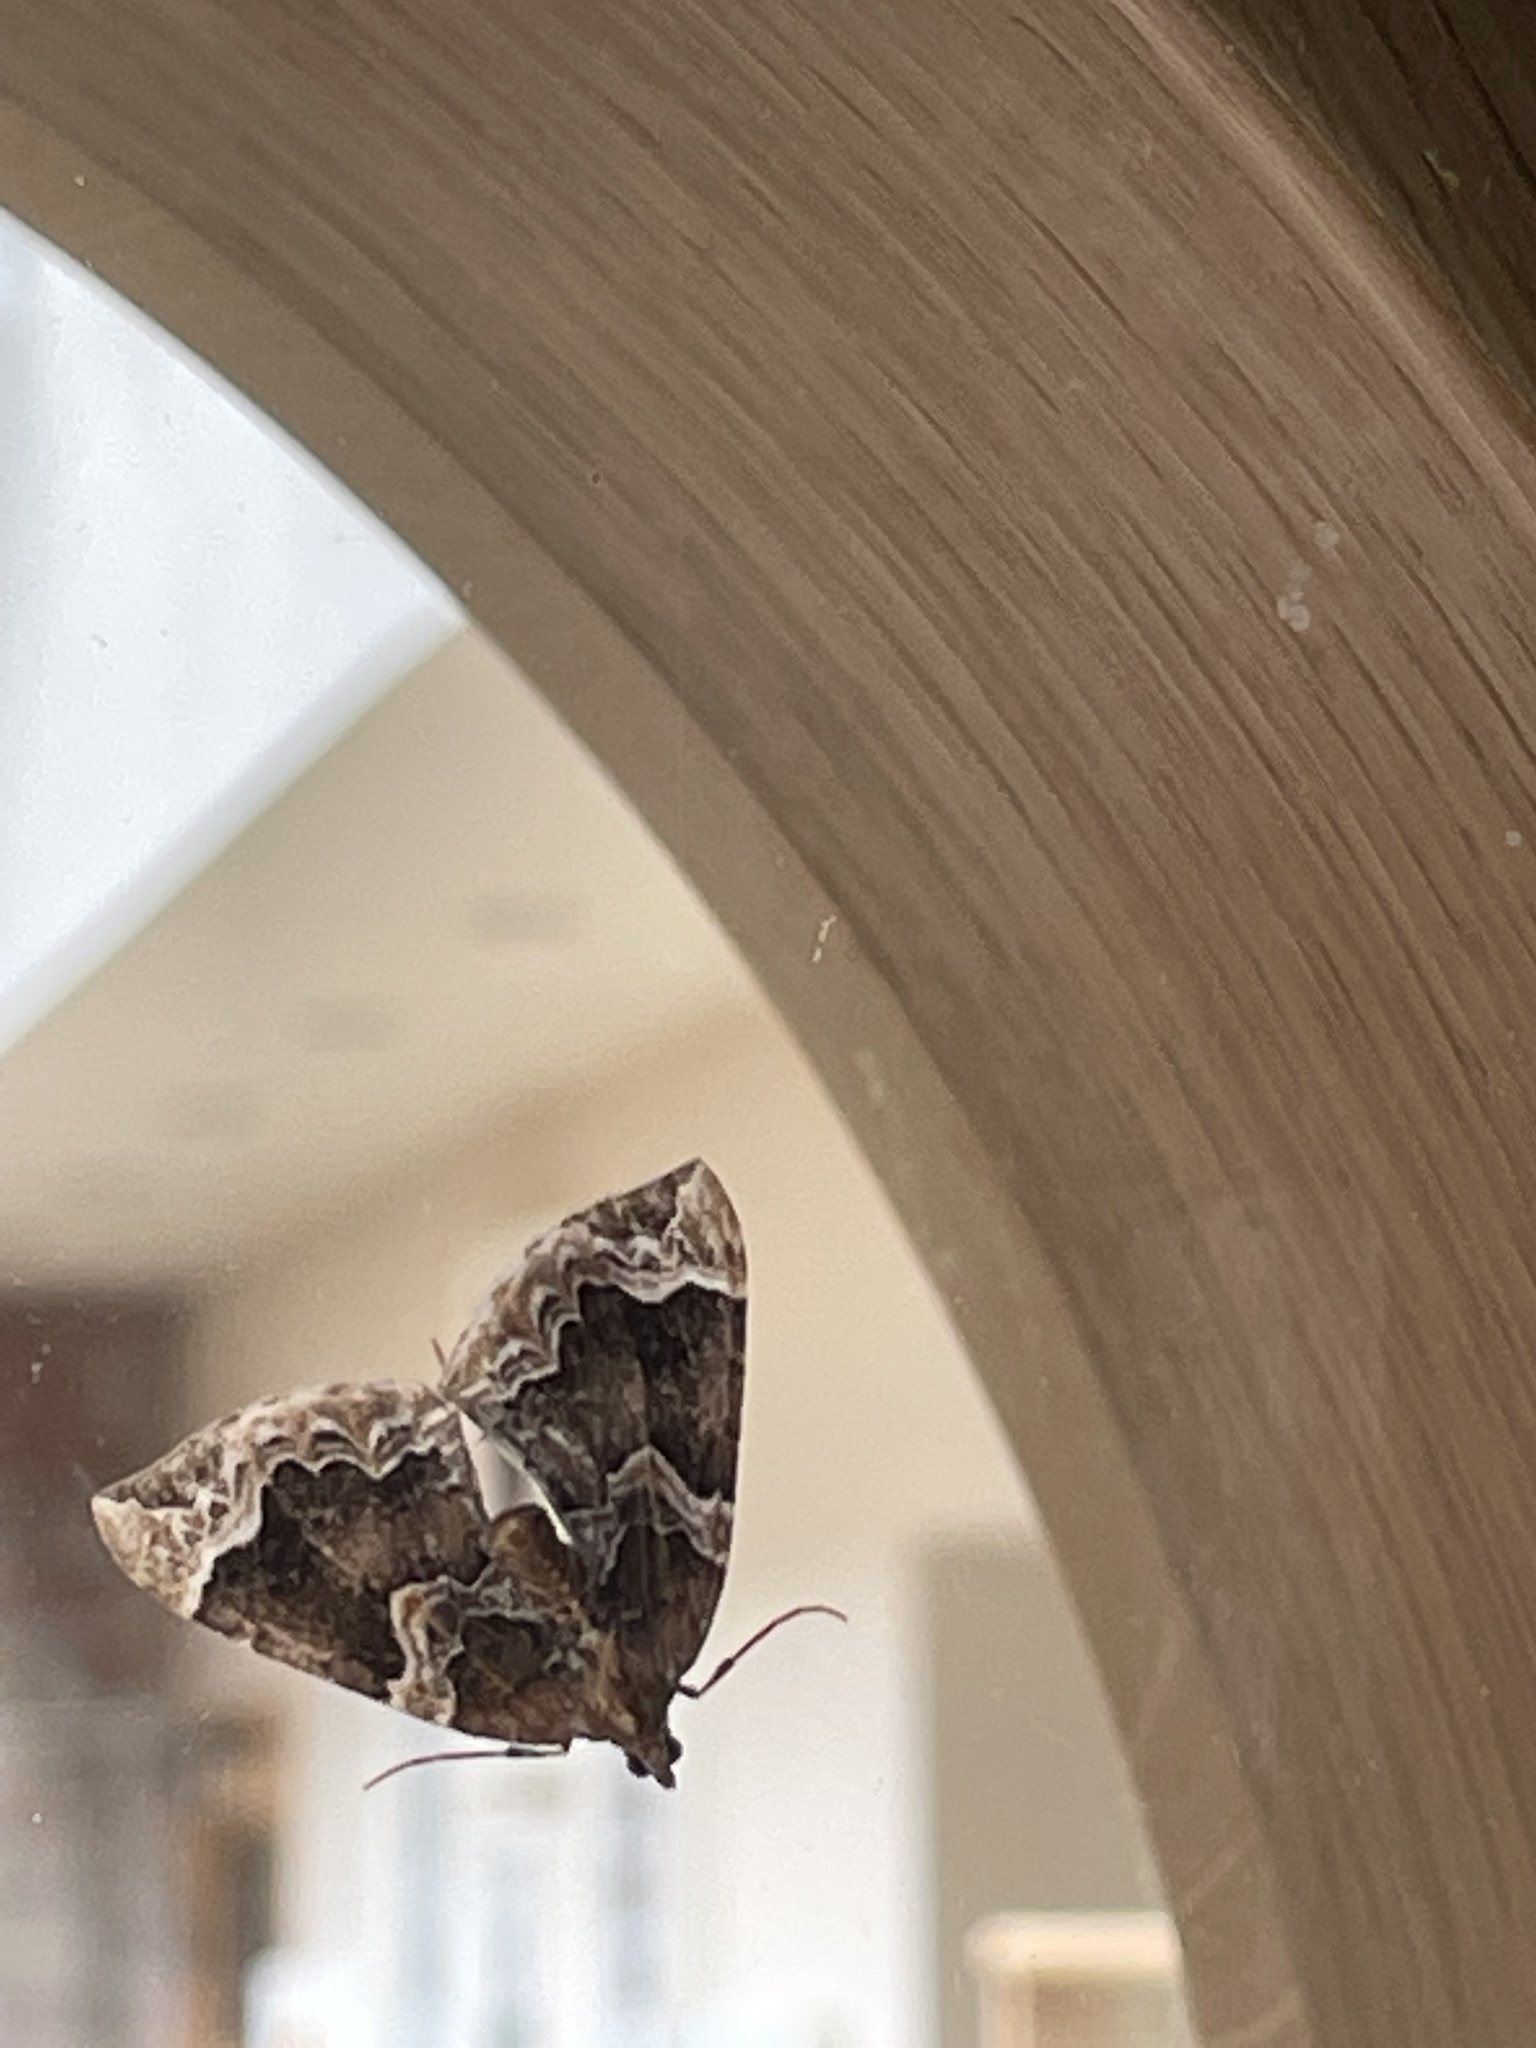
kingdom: Animalia
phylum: Arthropoda
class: Insecta
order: Lepidoptera
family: Geometridae
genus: Eulithis
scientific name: Eulithis prunata
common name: Phoenix
